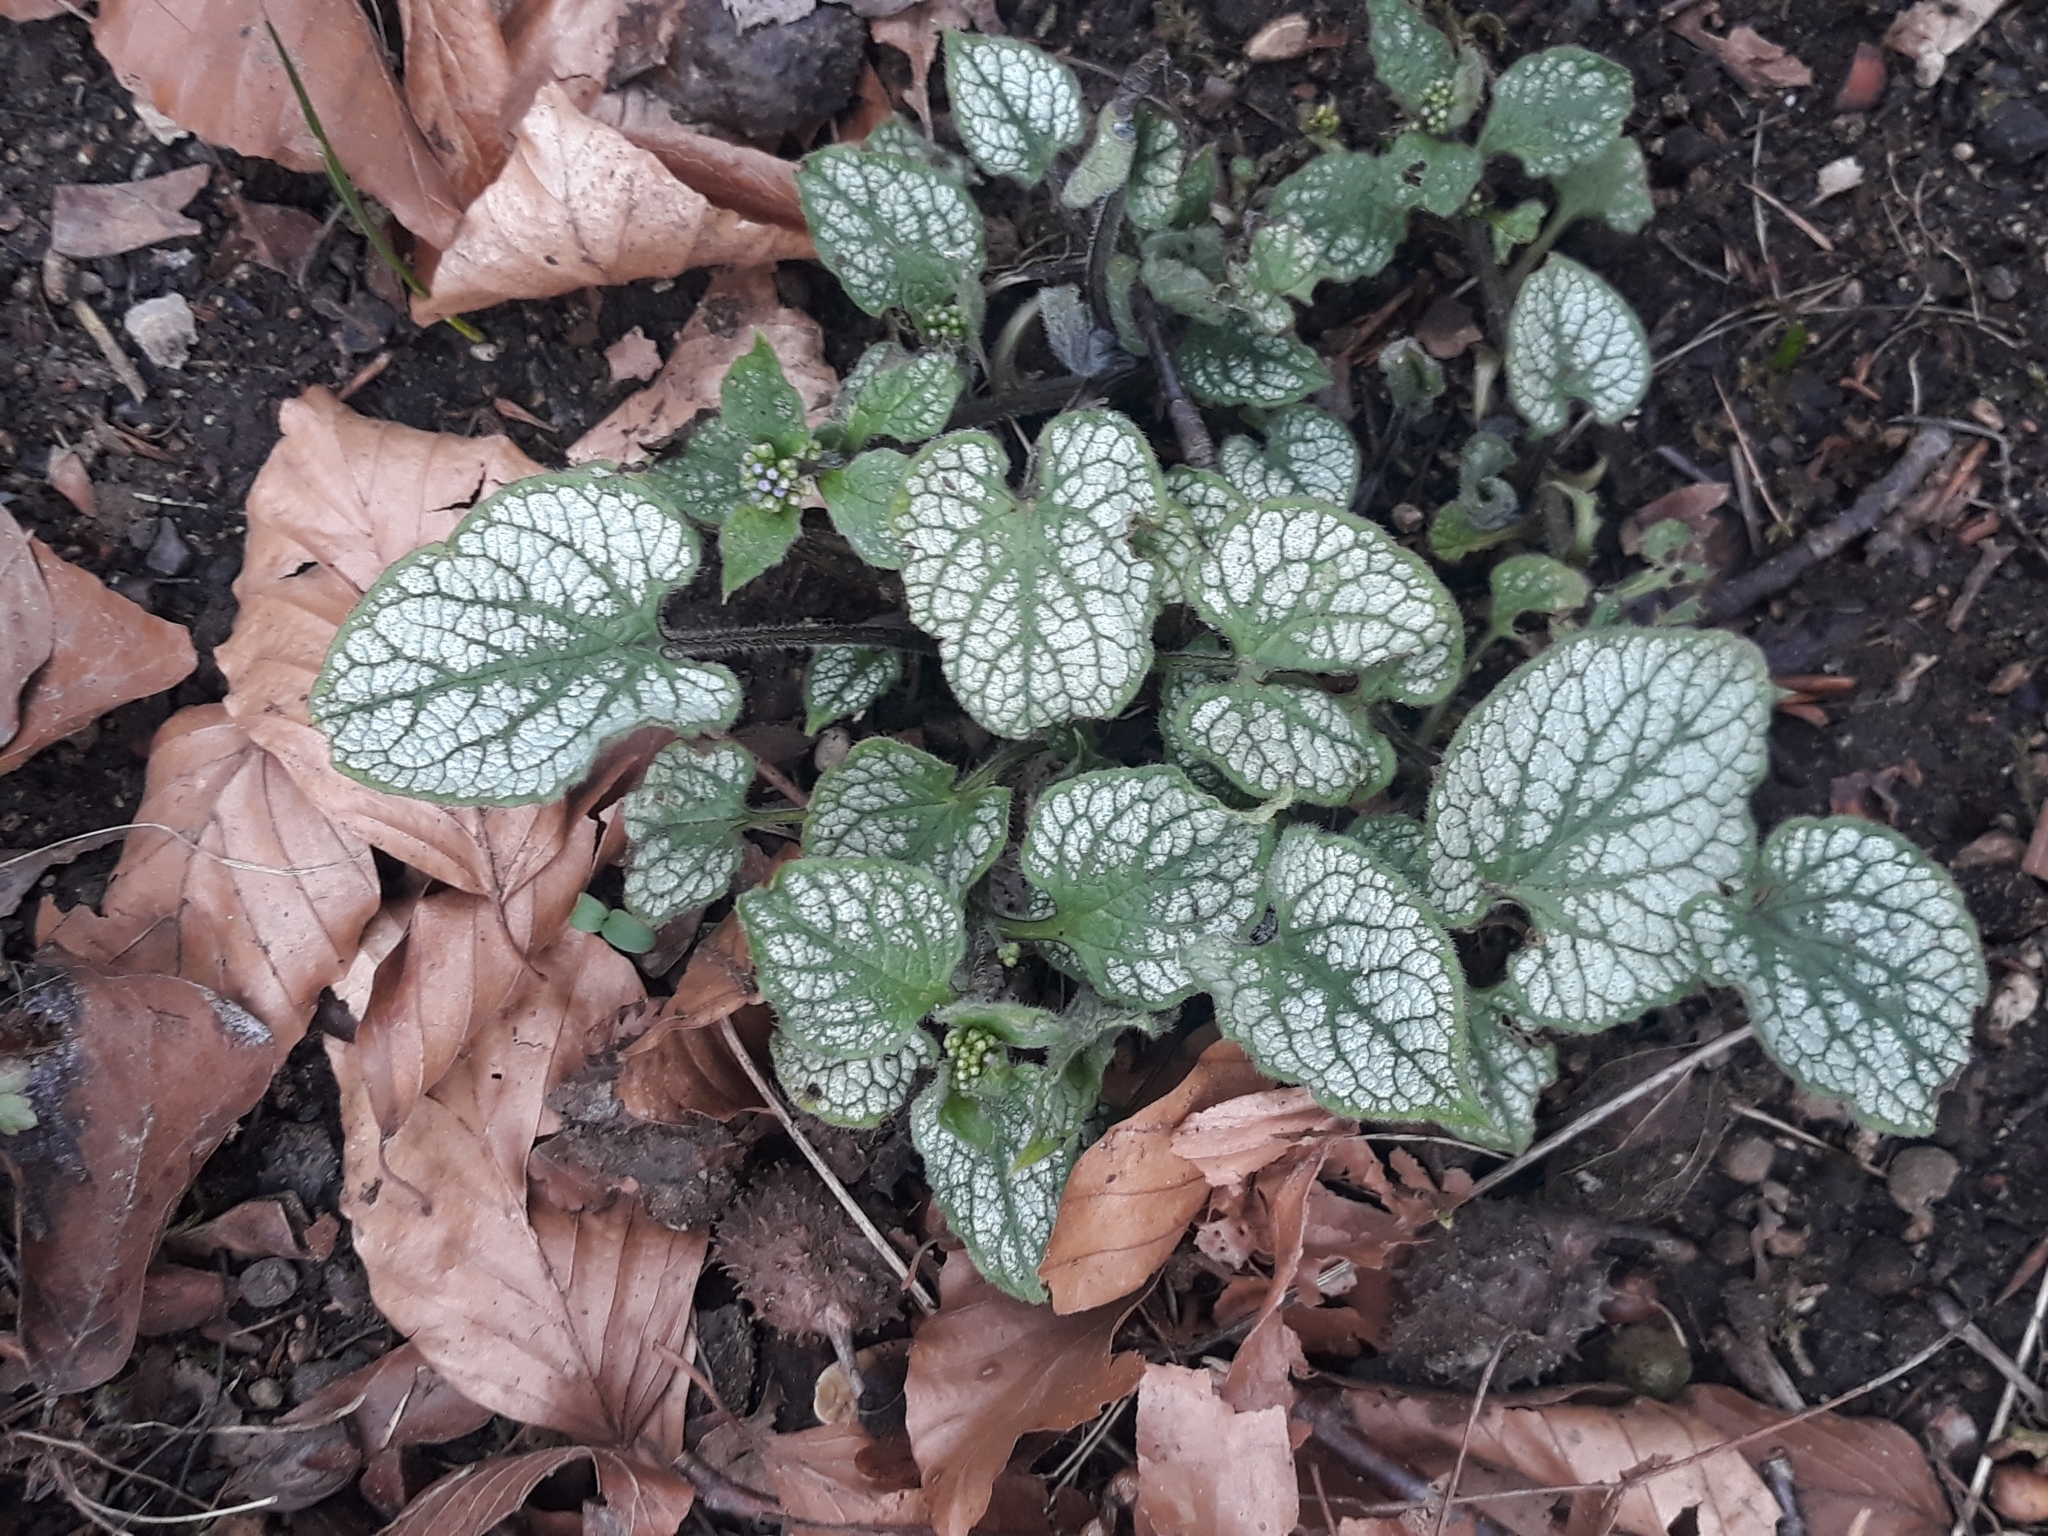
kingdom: Plantae
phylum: Tracheophyta
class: Magnoliopsida
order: Boraginales
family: Boraginaceae
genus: Brunnera
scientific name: Brunnera macrophylla
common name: Great forget-me-not
